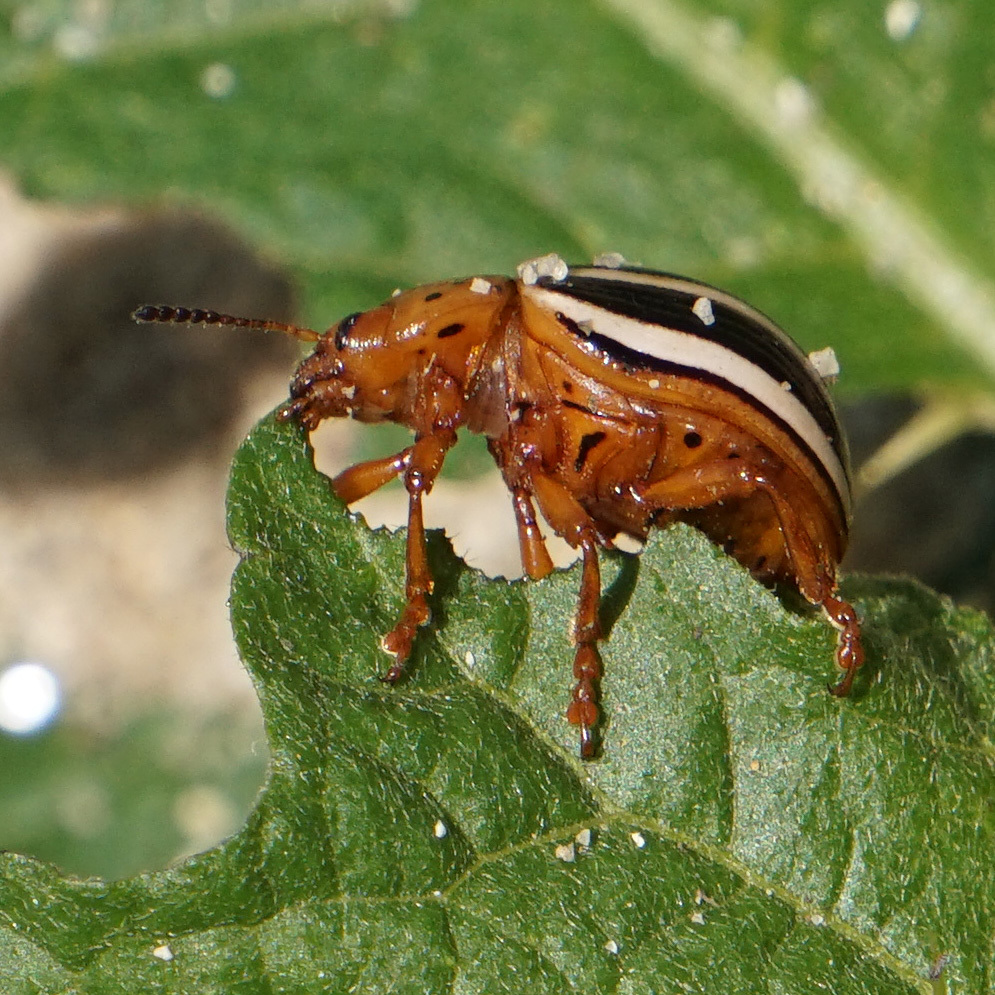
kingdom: Animalia
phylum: Arthropoda
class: Insecta
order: Coleoptera
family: Chrysomelidae
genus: Leptinotarsa
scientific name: Leptinotarsa juncta
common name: False potato beetle
